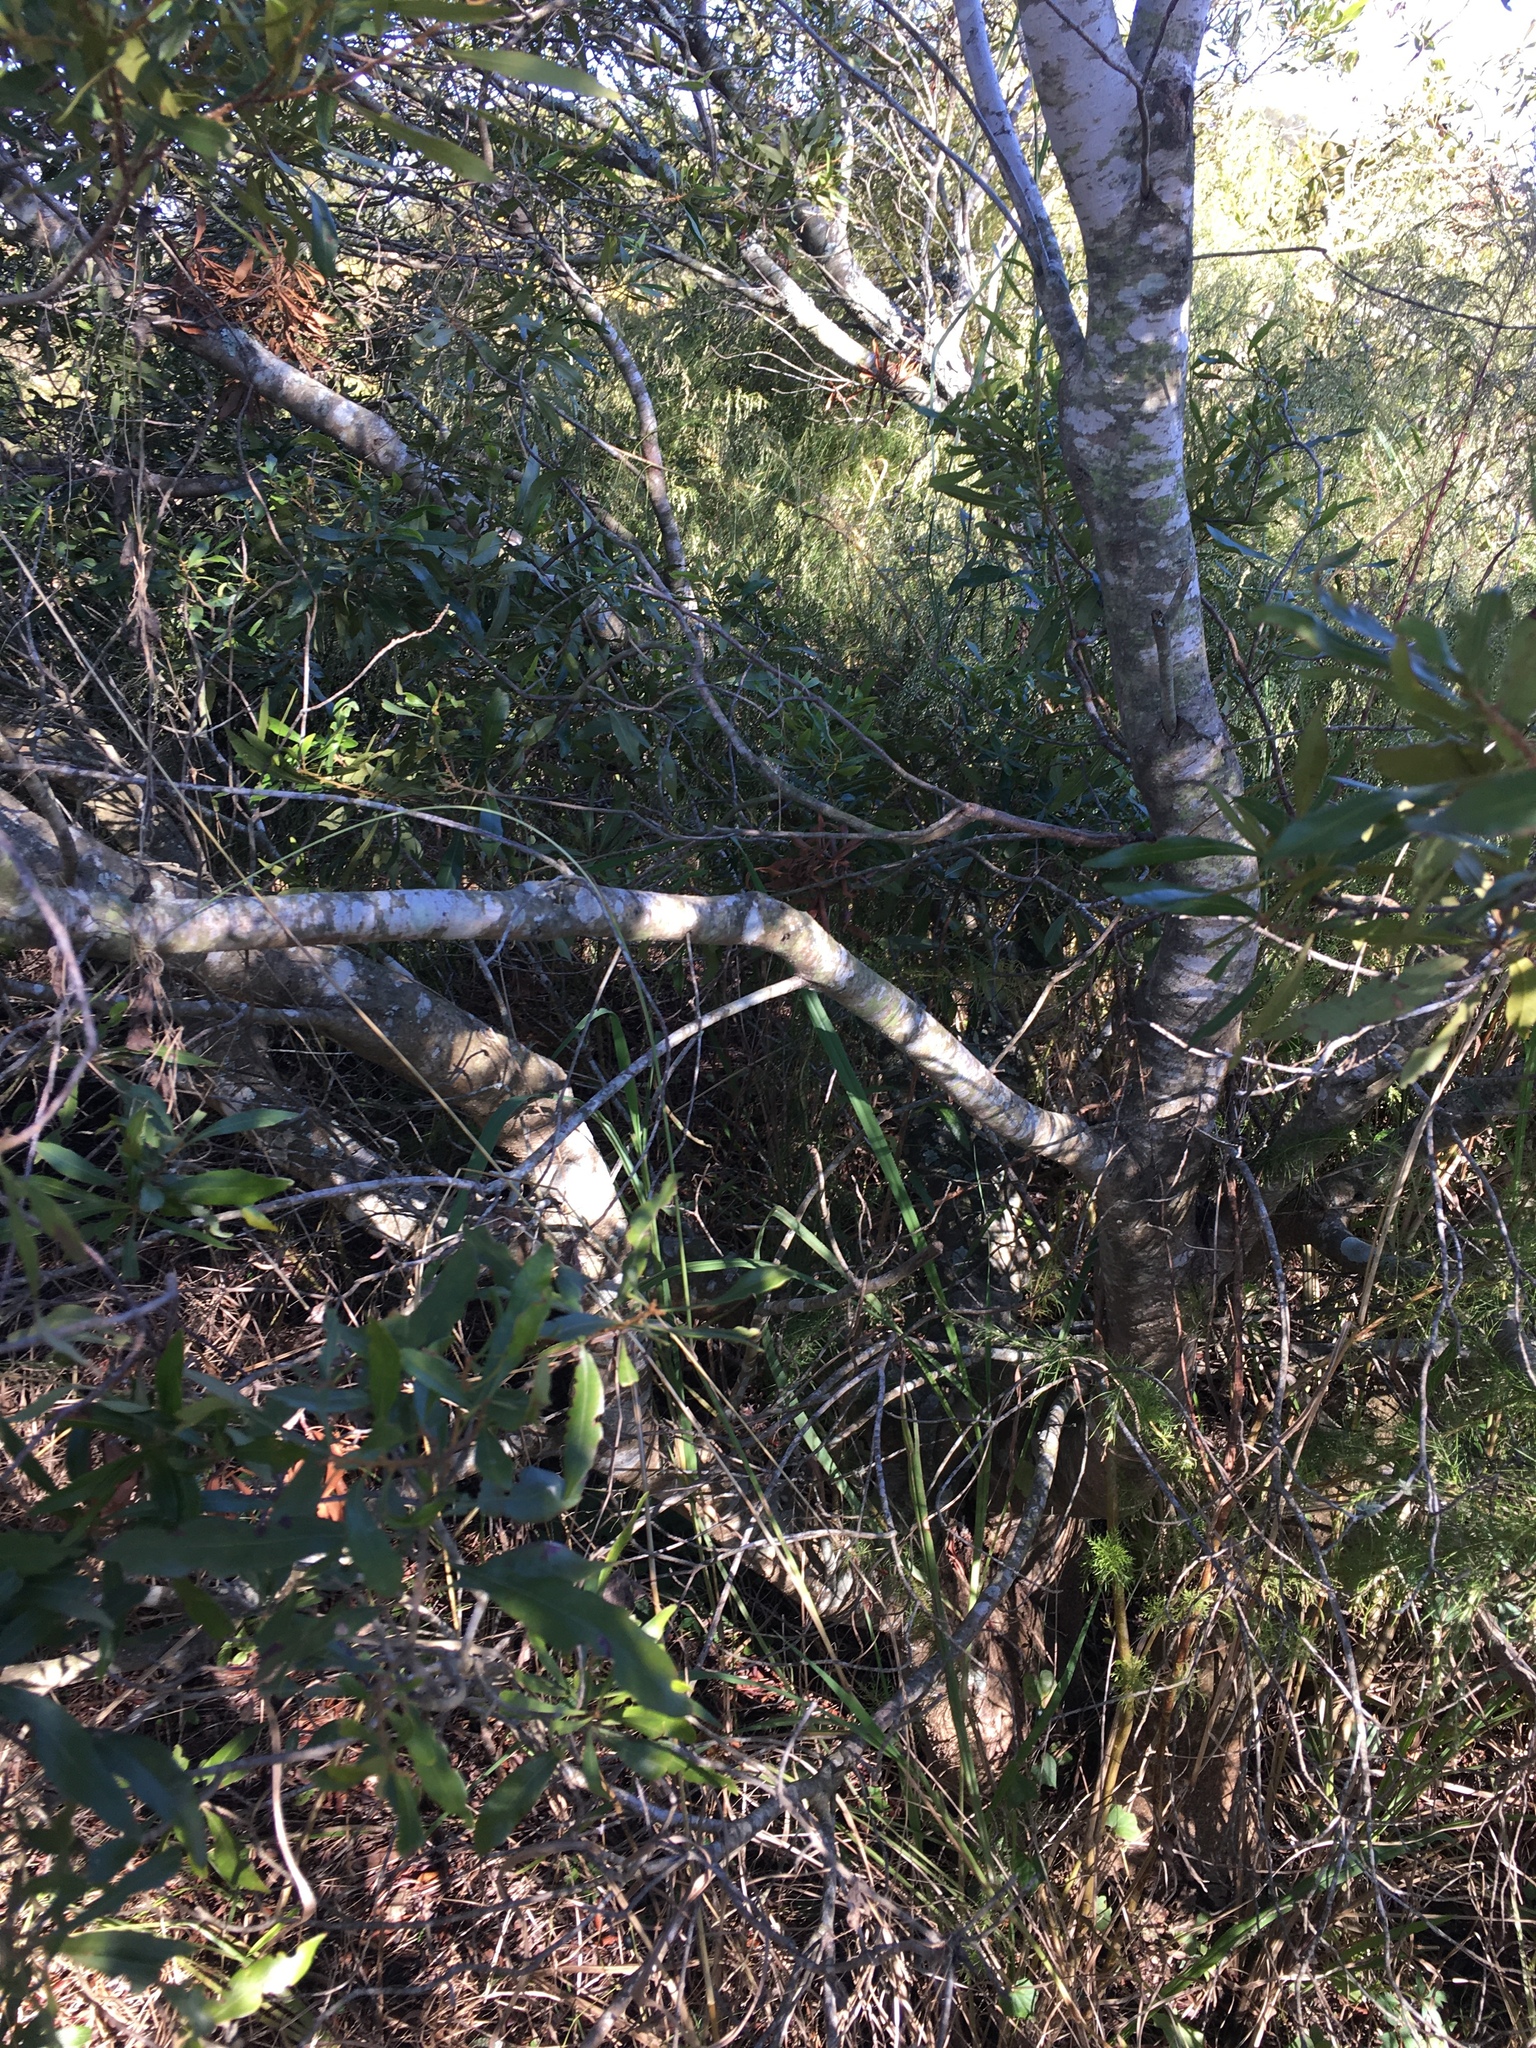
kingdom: Plantae
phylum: Tracheophyta
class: Magnoliopsida
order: Fagales
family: Myricaceae
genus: Morella
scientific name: Morella cerifera
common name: Wax myrtle
